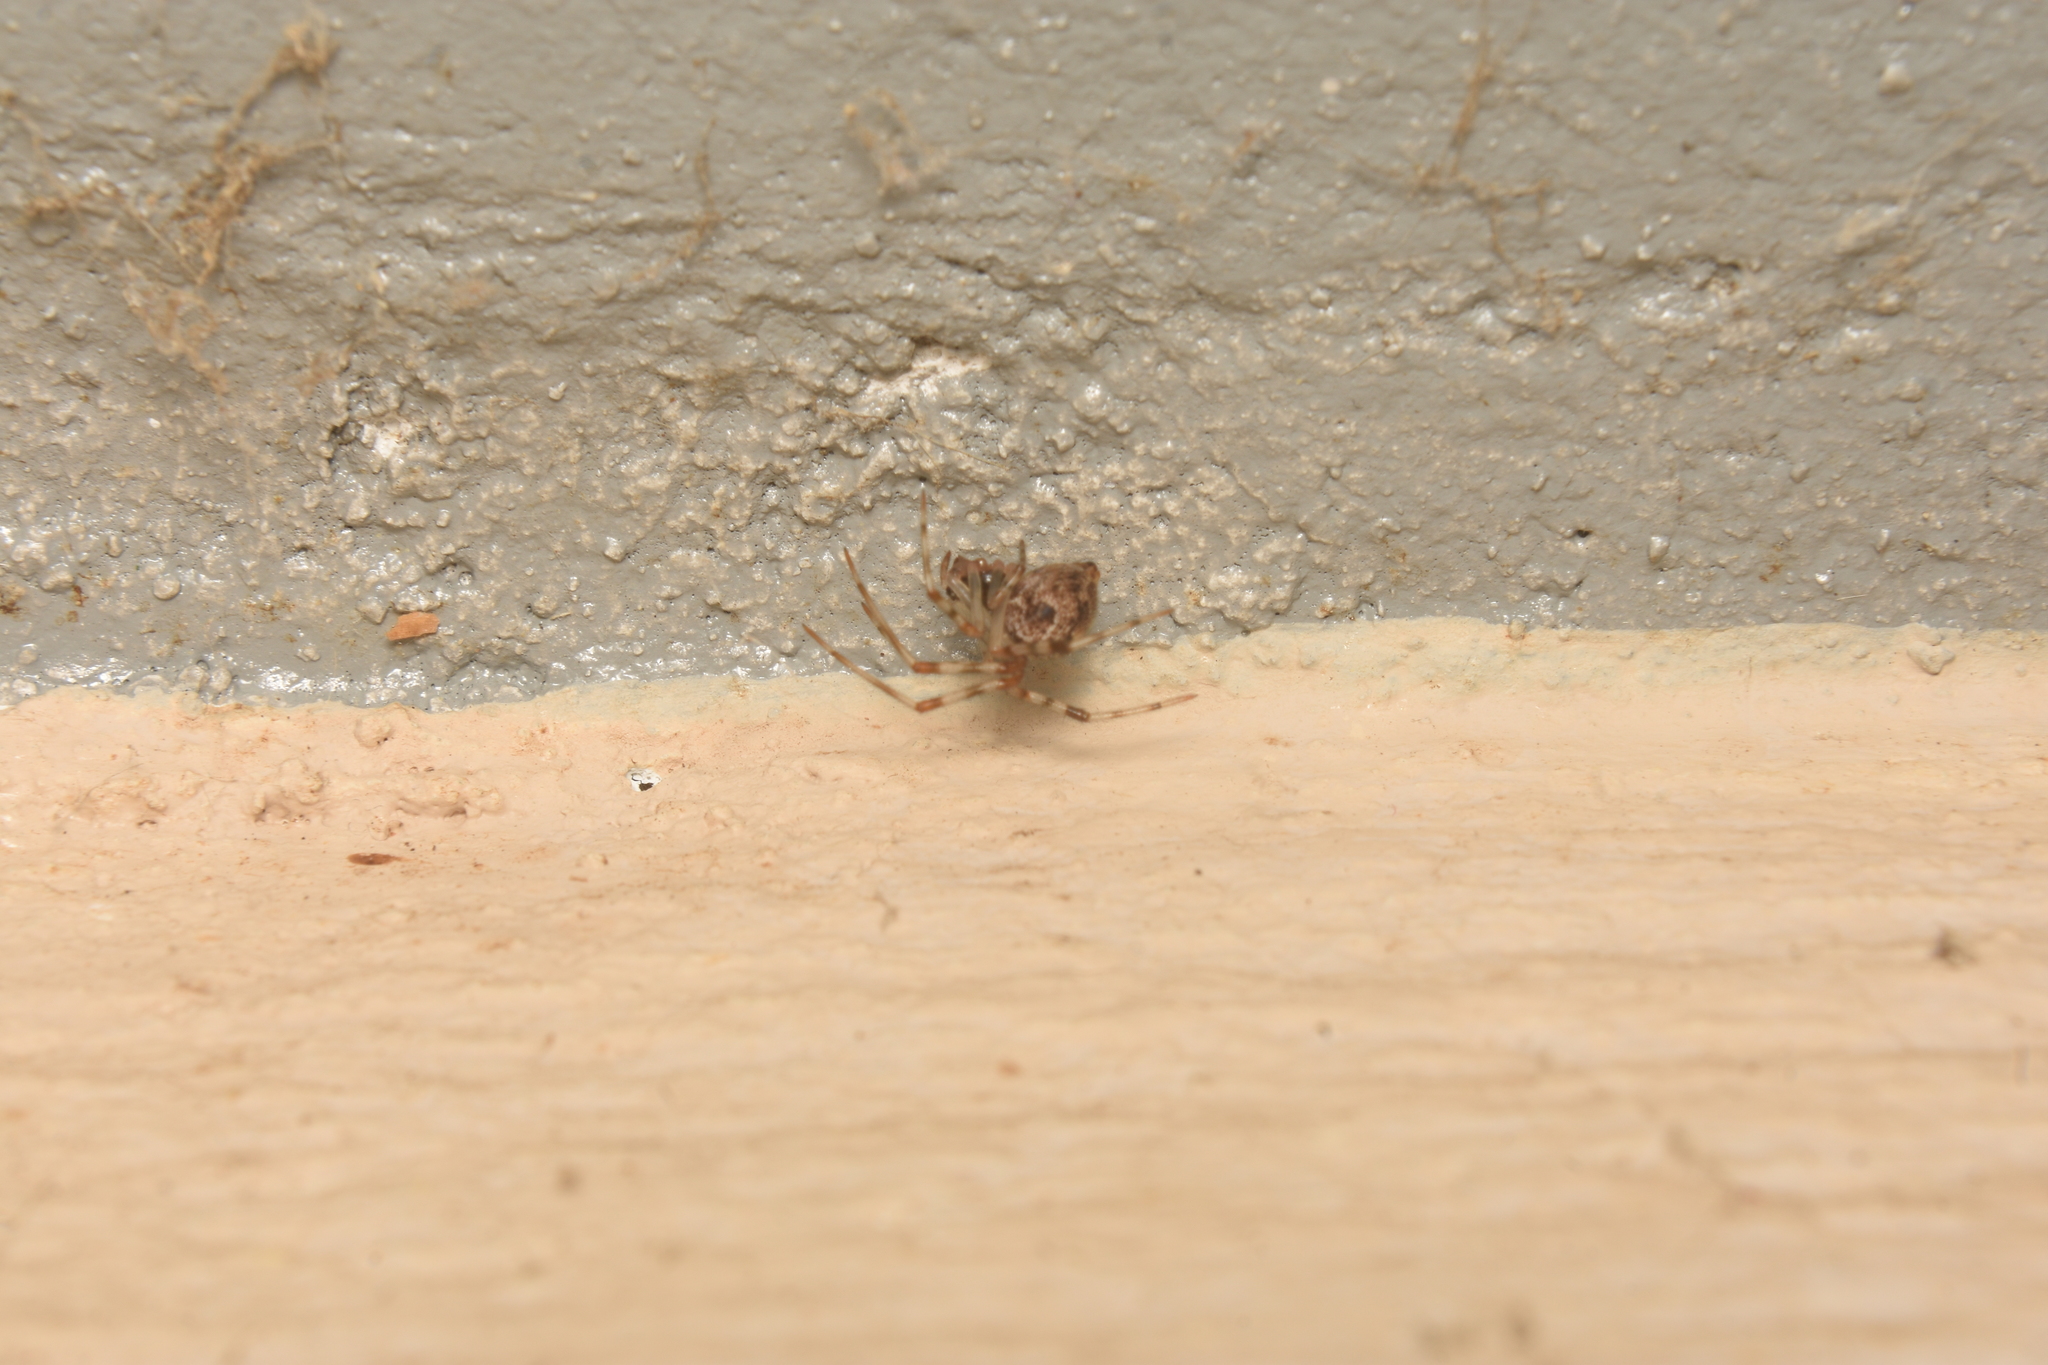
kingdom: Animalia
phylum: Arthropoda
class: Arachnida
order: Araneae
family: Theridiidae
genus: Parasteatoda
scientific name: Parasteatoda tepidariorum
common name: Common house spider
